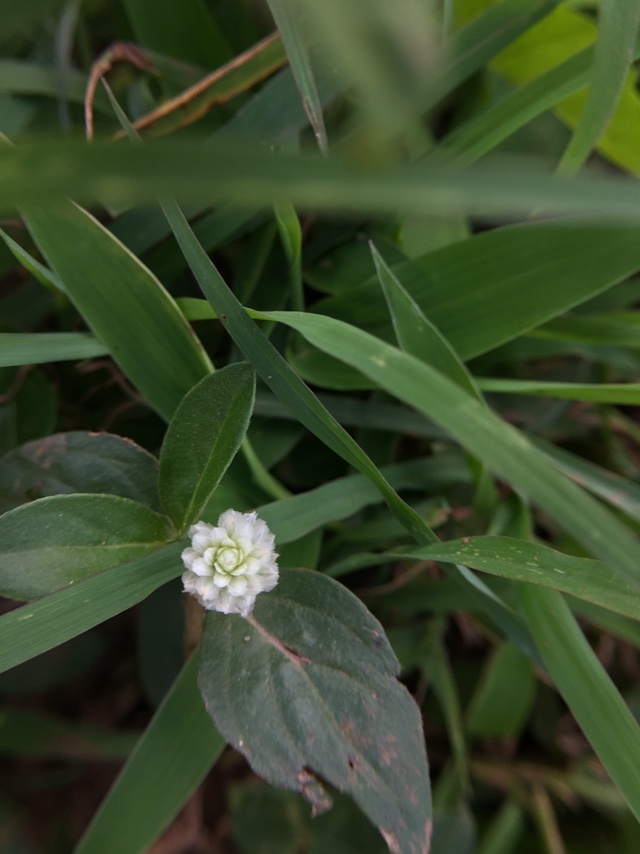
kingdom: Plantae
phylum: Tracheophyta
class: Magnoliopsida
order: Caryophyllales
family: Amaranthaceae
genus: Gomphrena
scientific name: Gomphrena serrata
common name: Arrasa con todo
